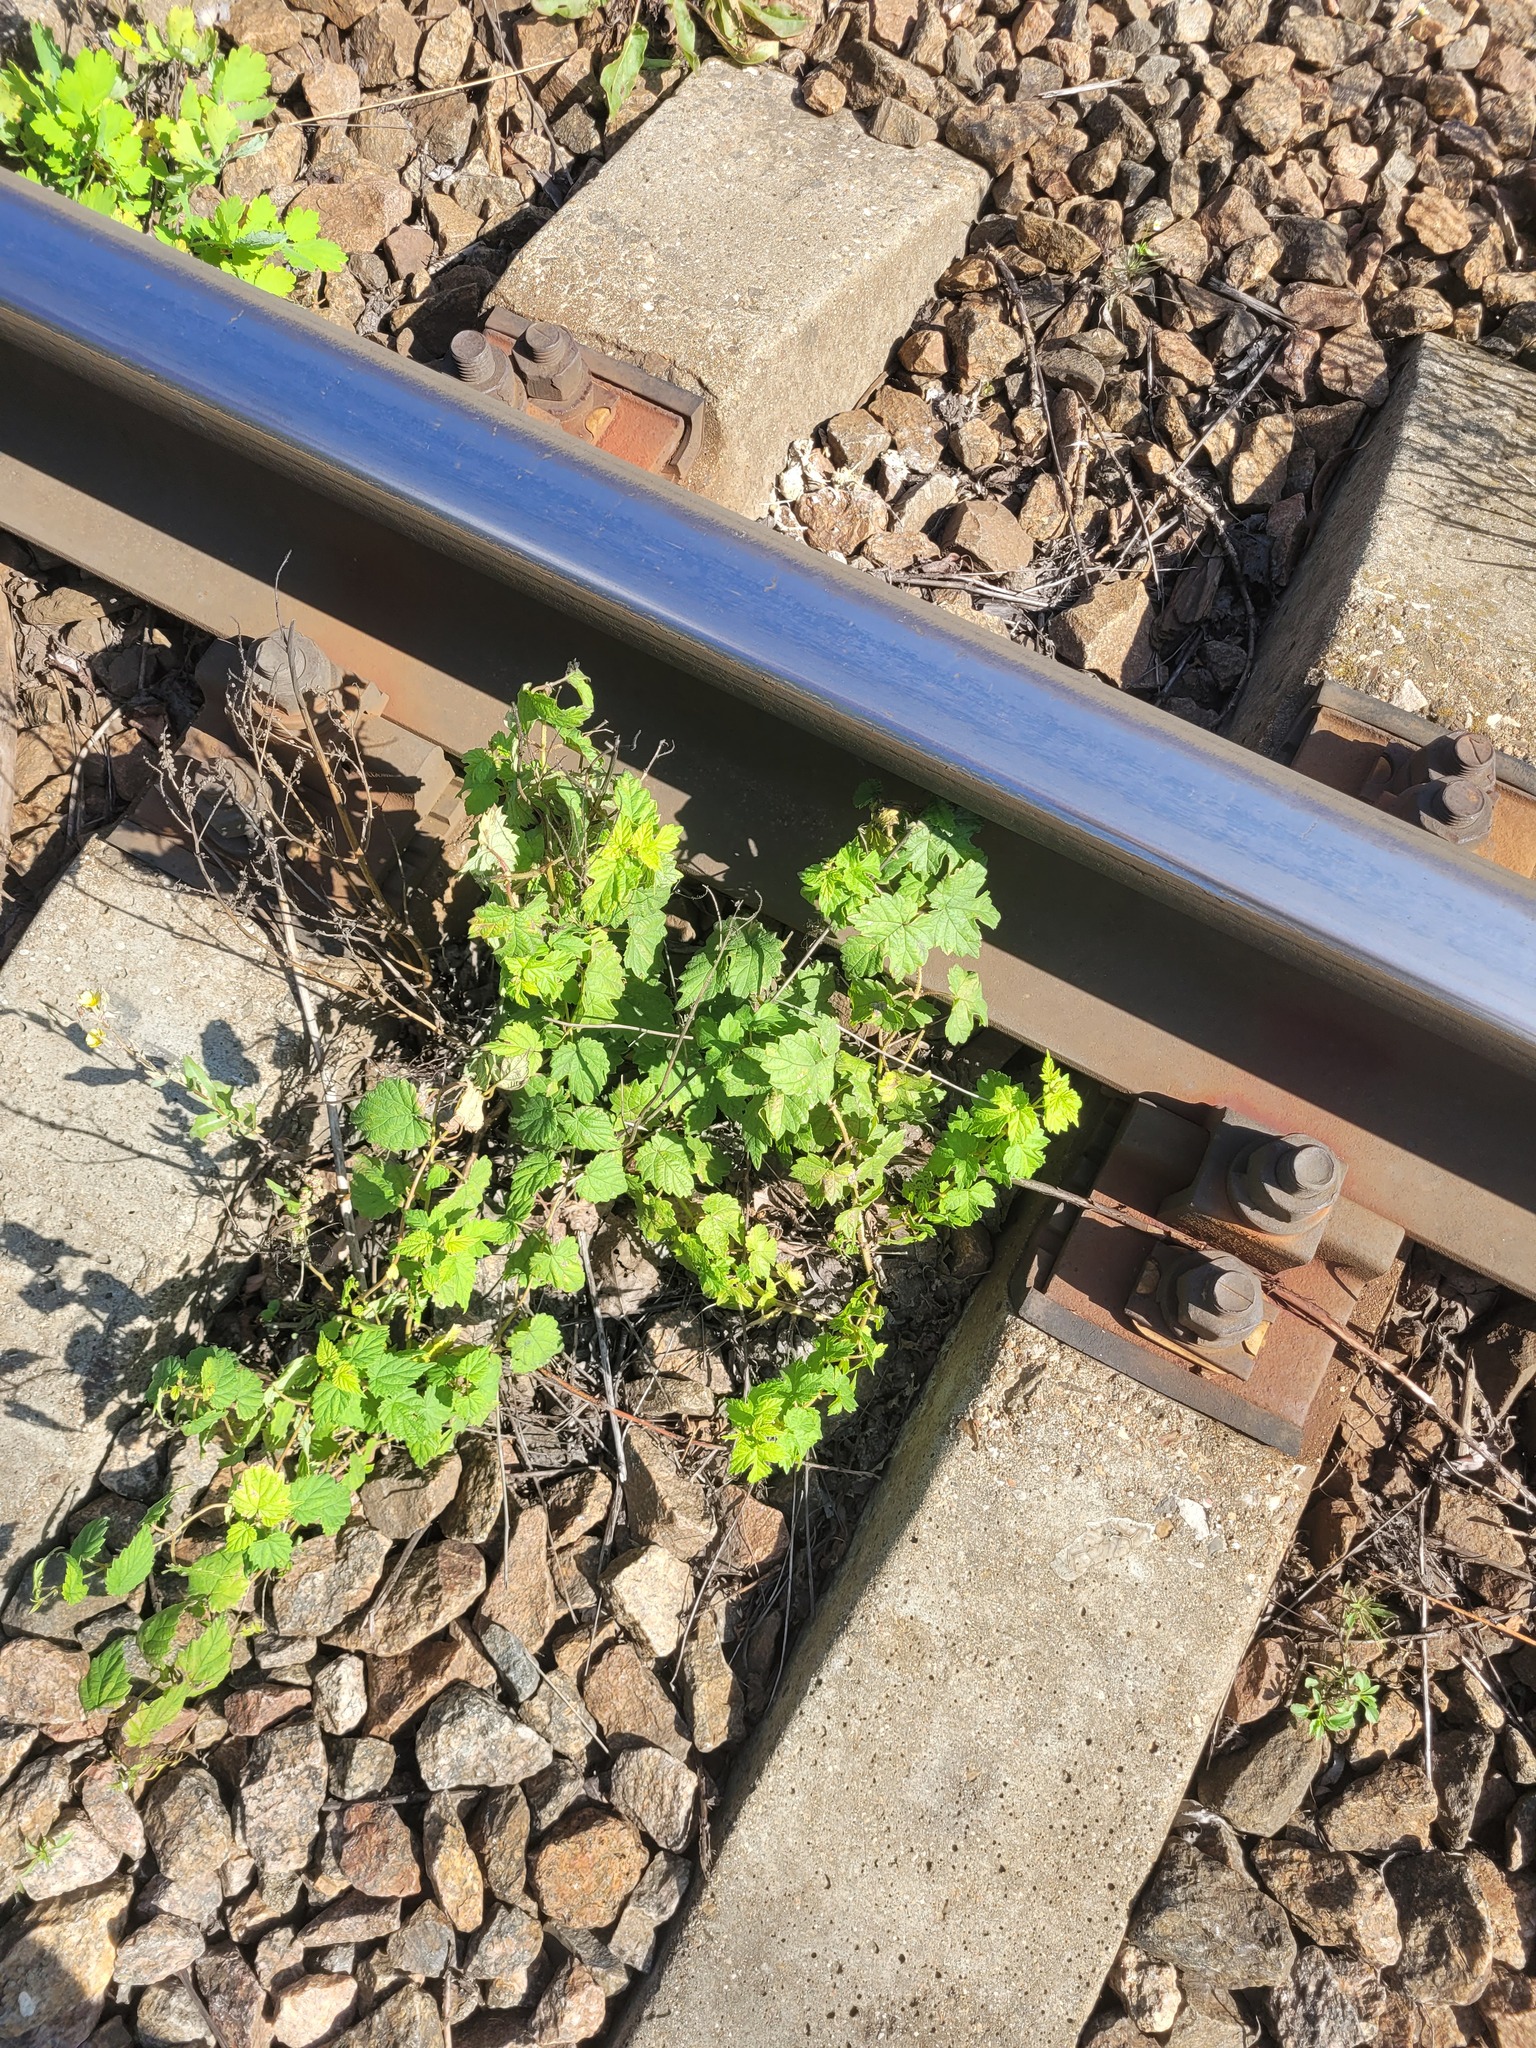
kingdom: Plantae
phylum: Tracheophyta
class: Magnoliopsida
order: Rosales
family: Cannabaceae
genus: Humulus
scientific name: Humulus lupulus
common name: Hop
